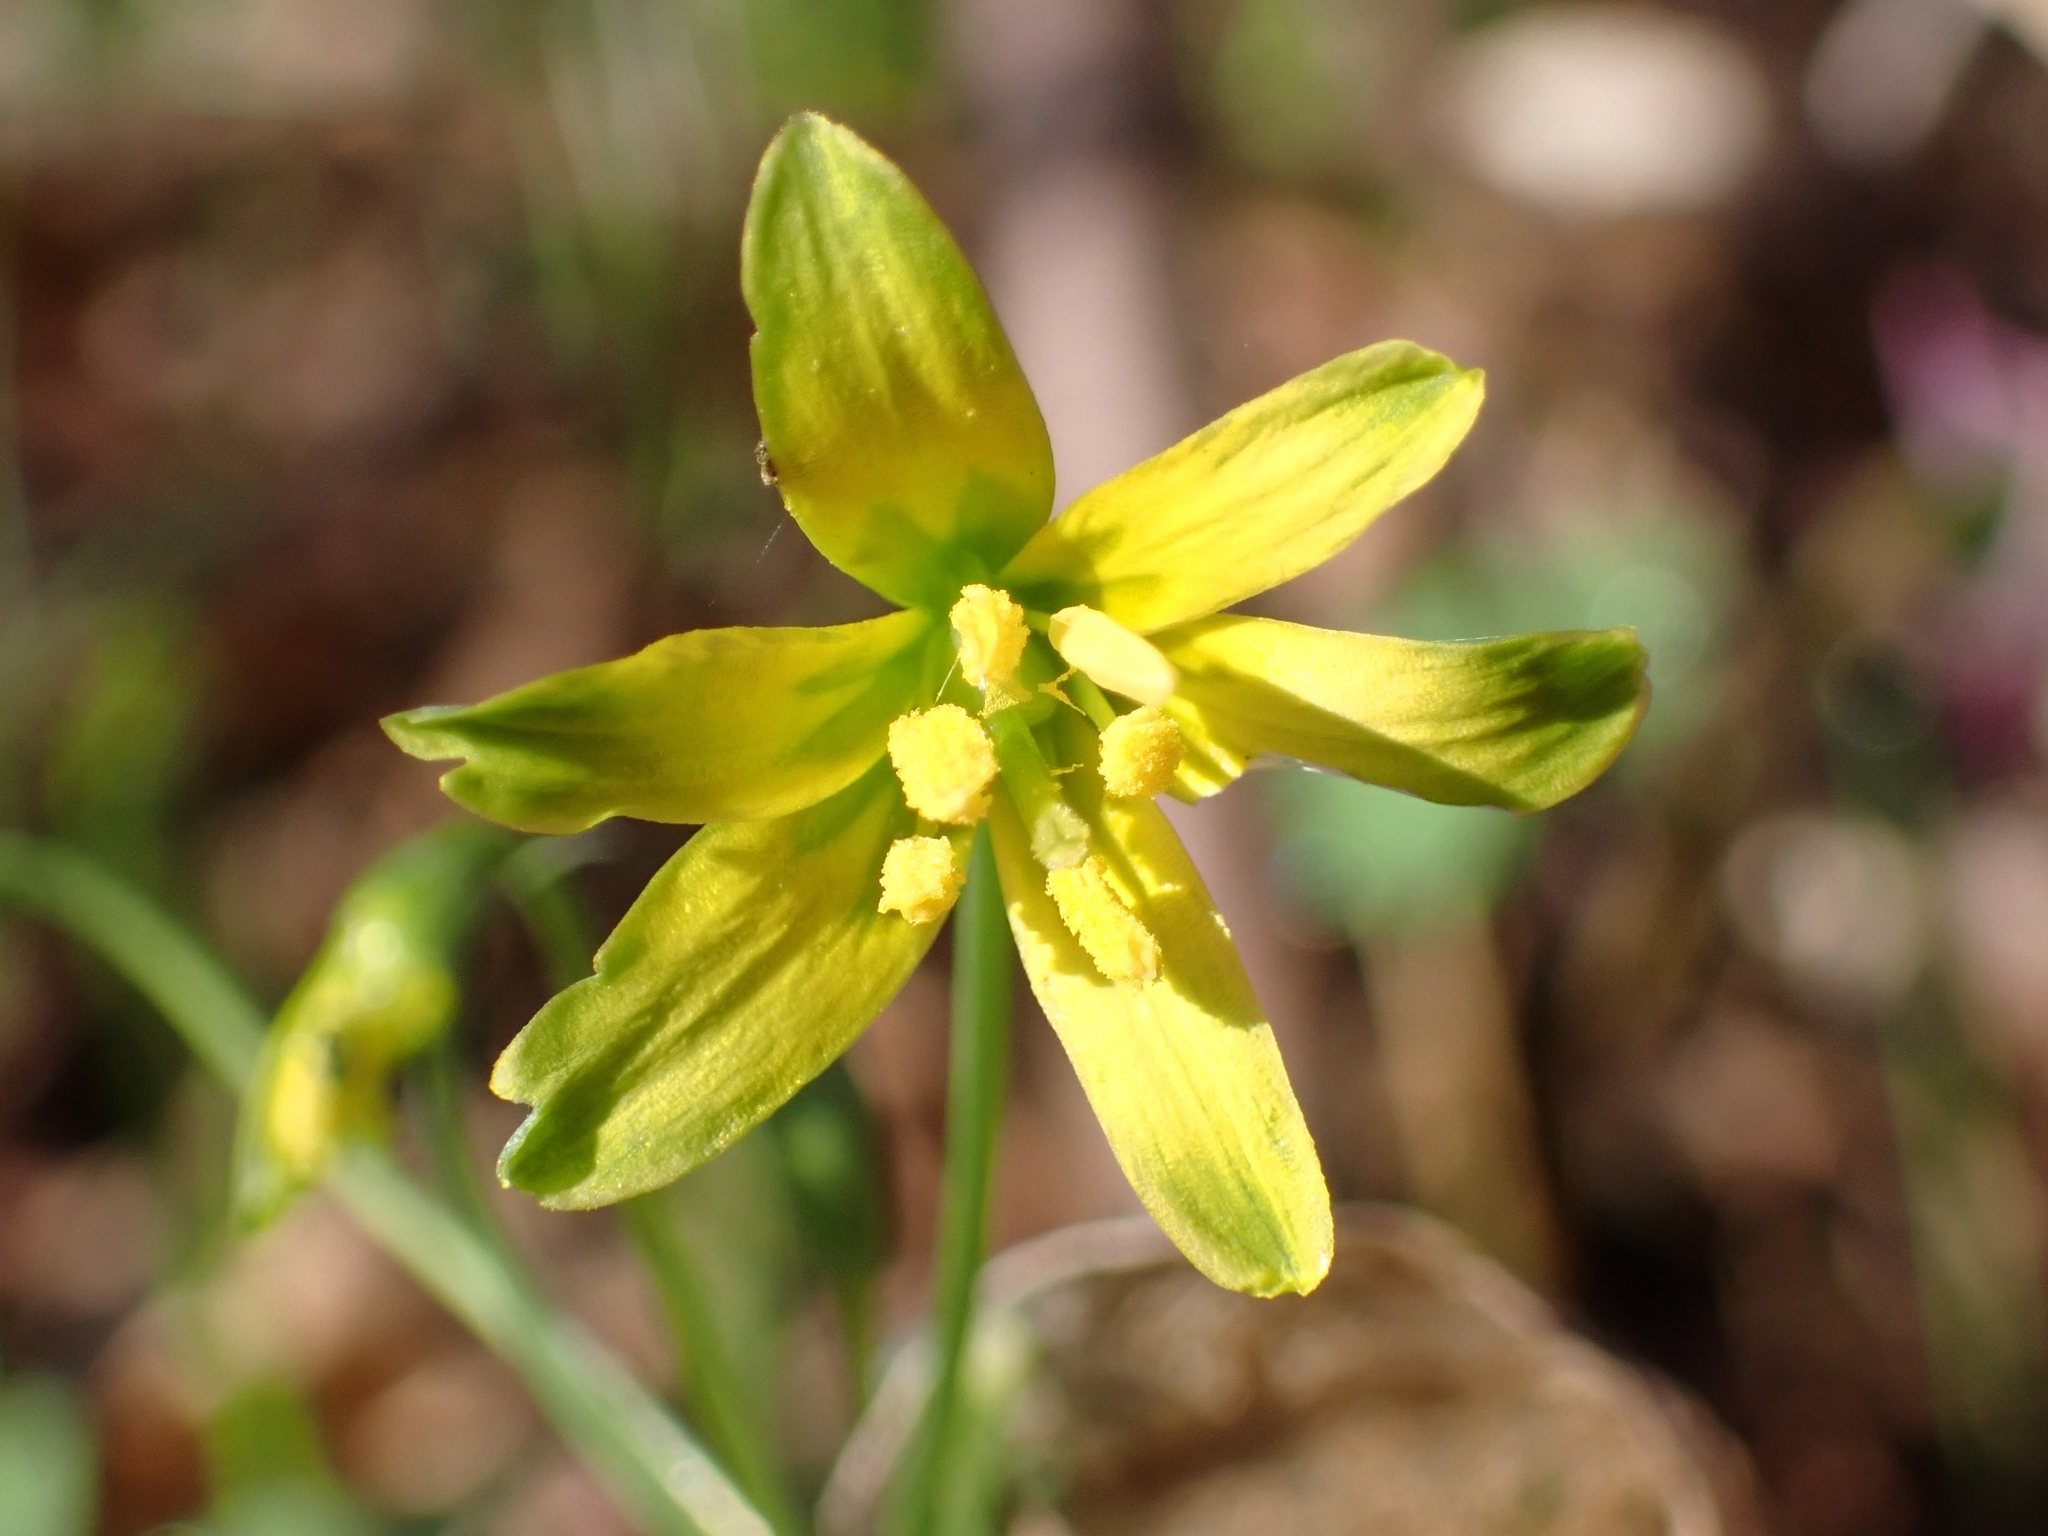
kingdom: Plantae
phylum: Tracheophyta
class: Liliopsida
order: Liliales
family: Liliaceae
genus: Gagea
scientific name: Gagea lutea
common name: Yellow star-of-bethlehem
